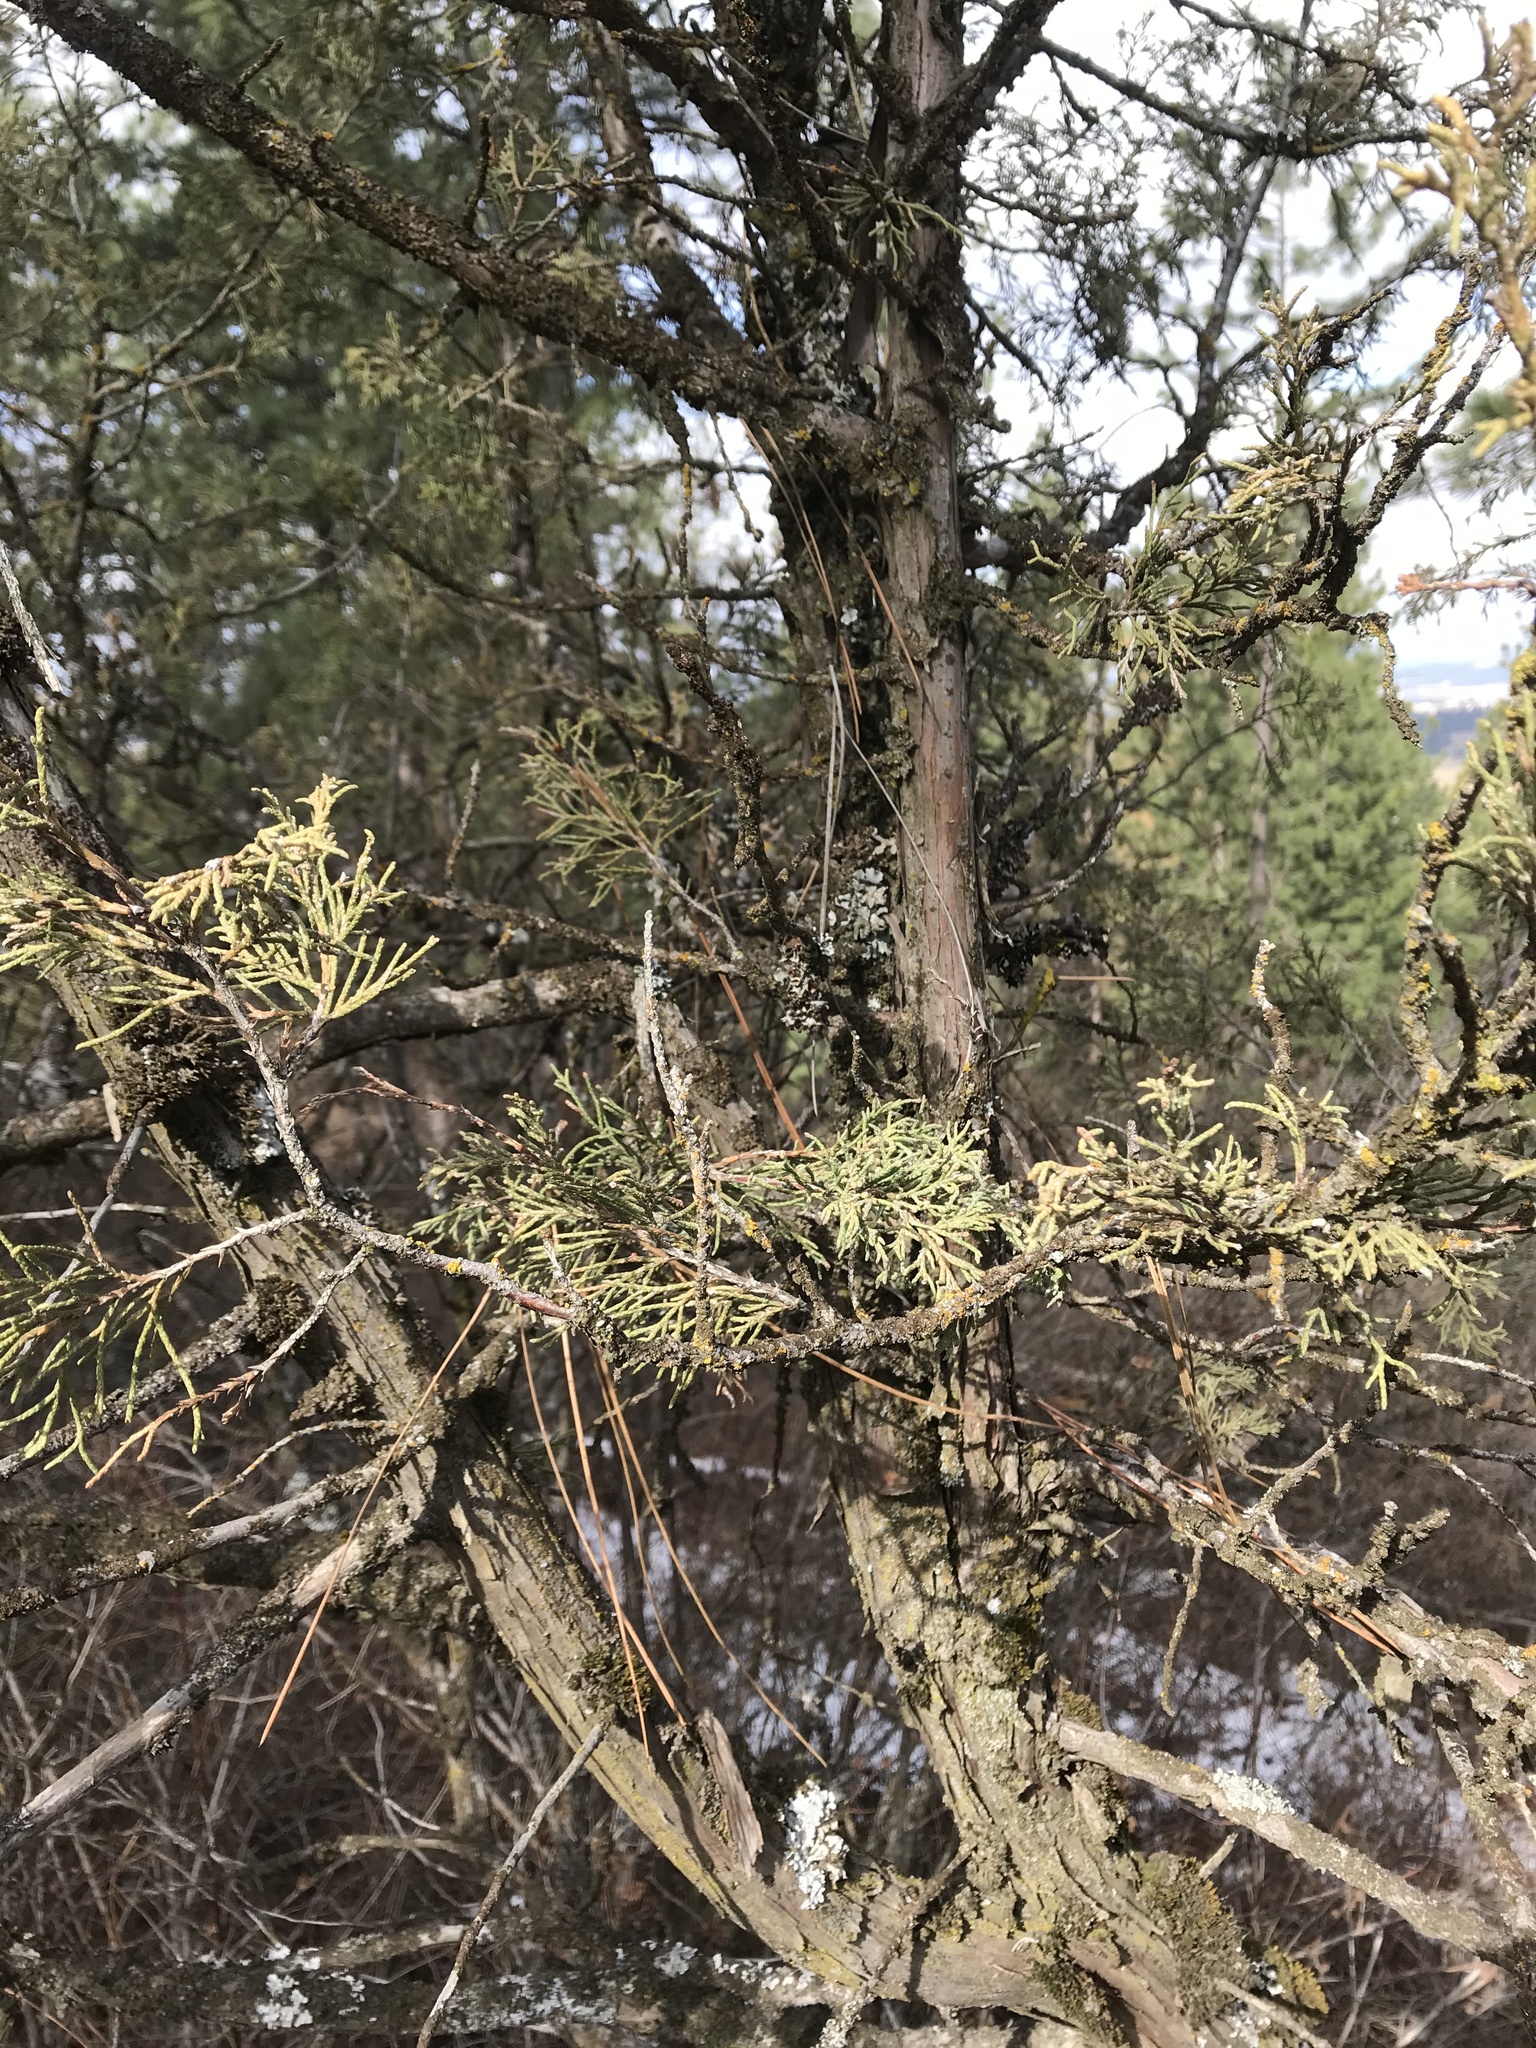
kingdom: Plantae
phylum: Tracheophyta
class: Pinopsida
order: Pinales
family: Cupressaceae
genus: Juniperus
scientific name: Juniperus scopulorum
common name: Rocky mountain juniper
